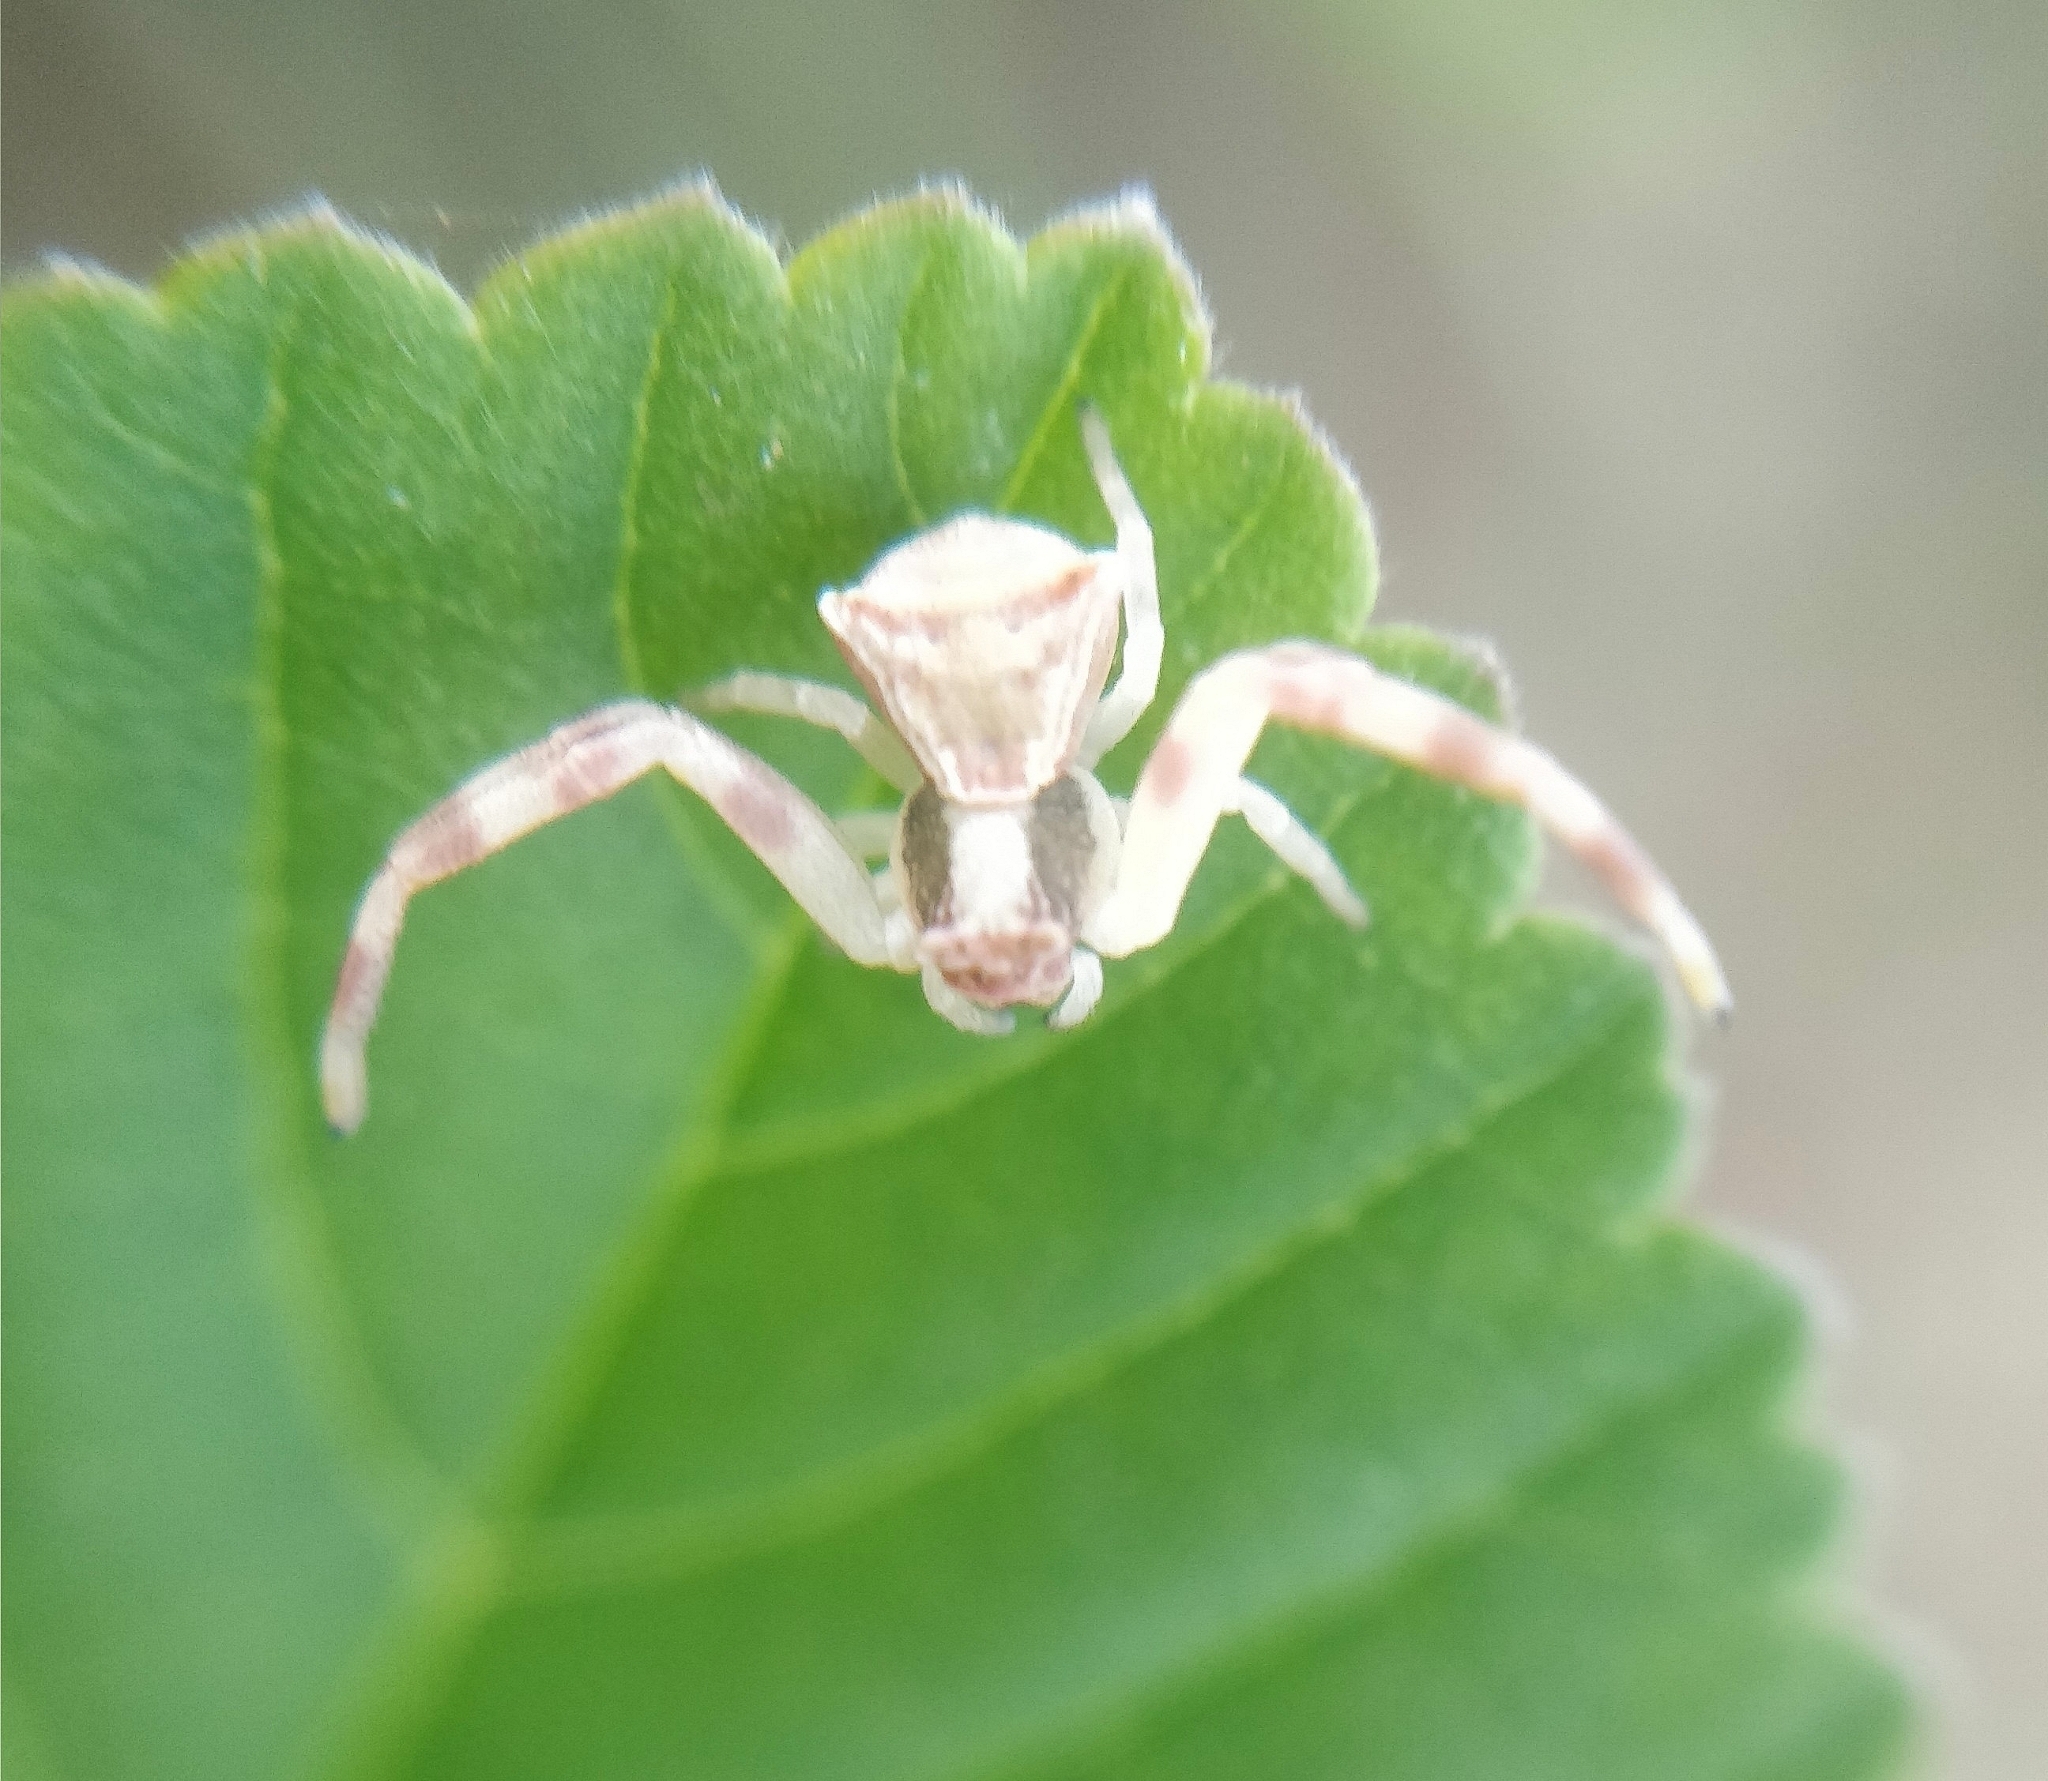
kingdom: Animalia
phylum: Arthropoda
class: Arachnida
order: Araneae
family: Thomisidae
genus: Thomisus
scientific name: Thomisus onustus
